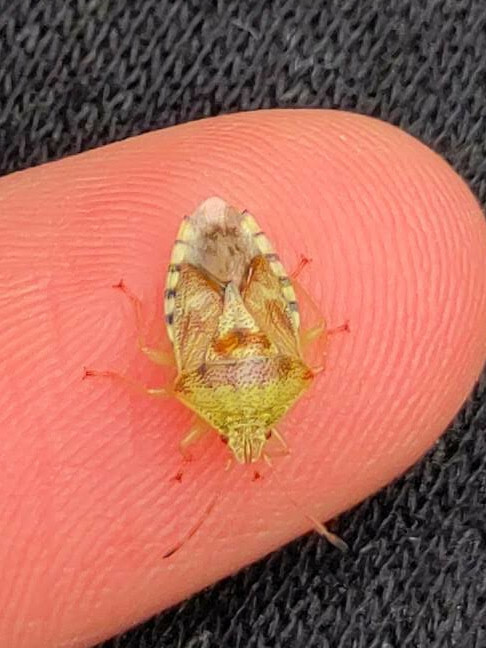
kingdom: Animalia
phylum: Arthropoda
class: Insecta
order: Hemiptera
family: Acanthosomatidae
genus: Elasmucha
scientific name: Elasmucha grisea
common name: Parent bug
